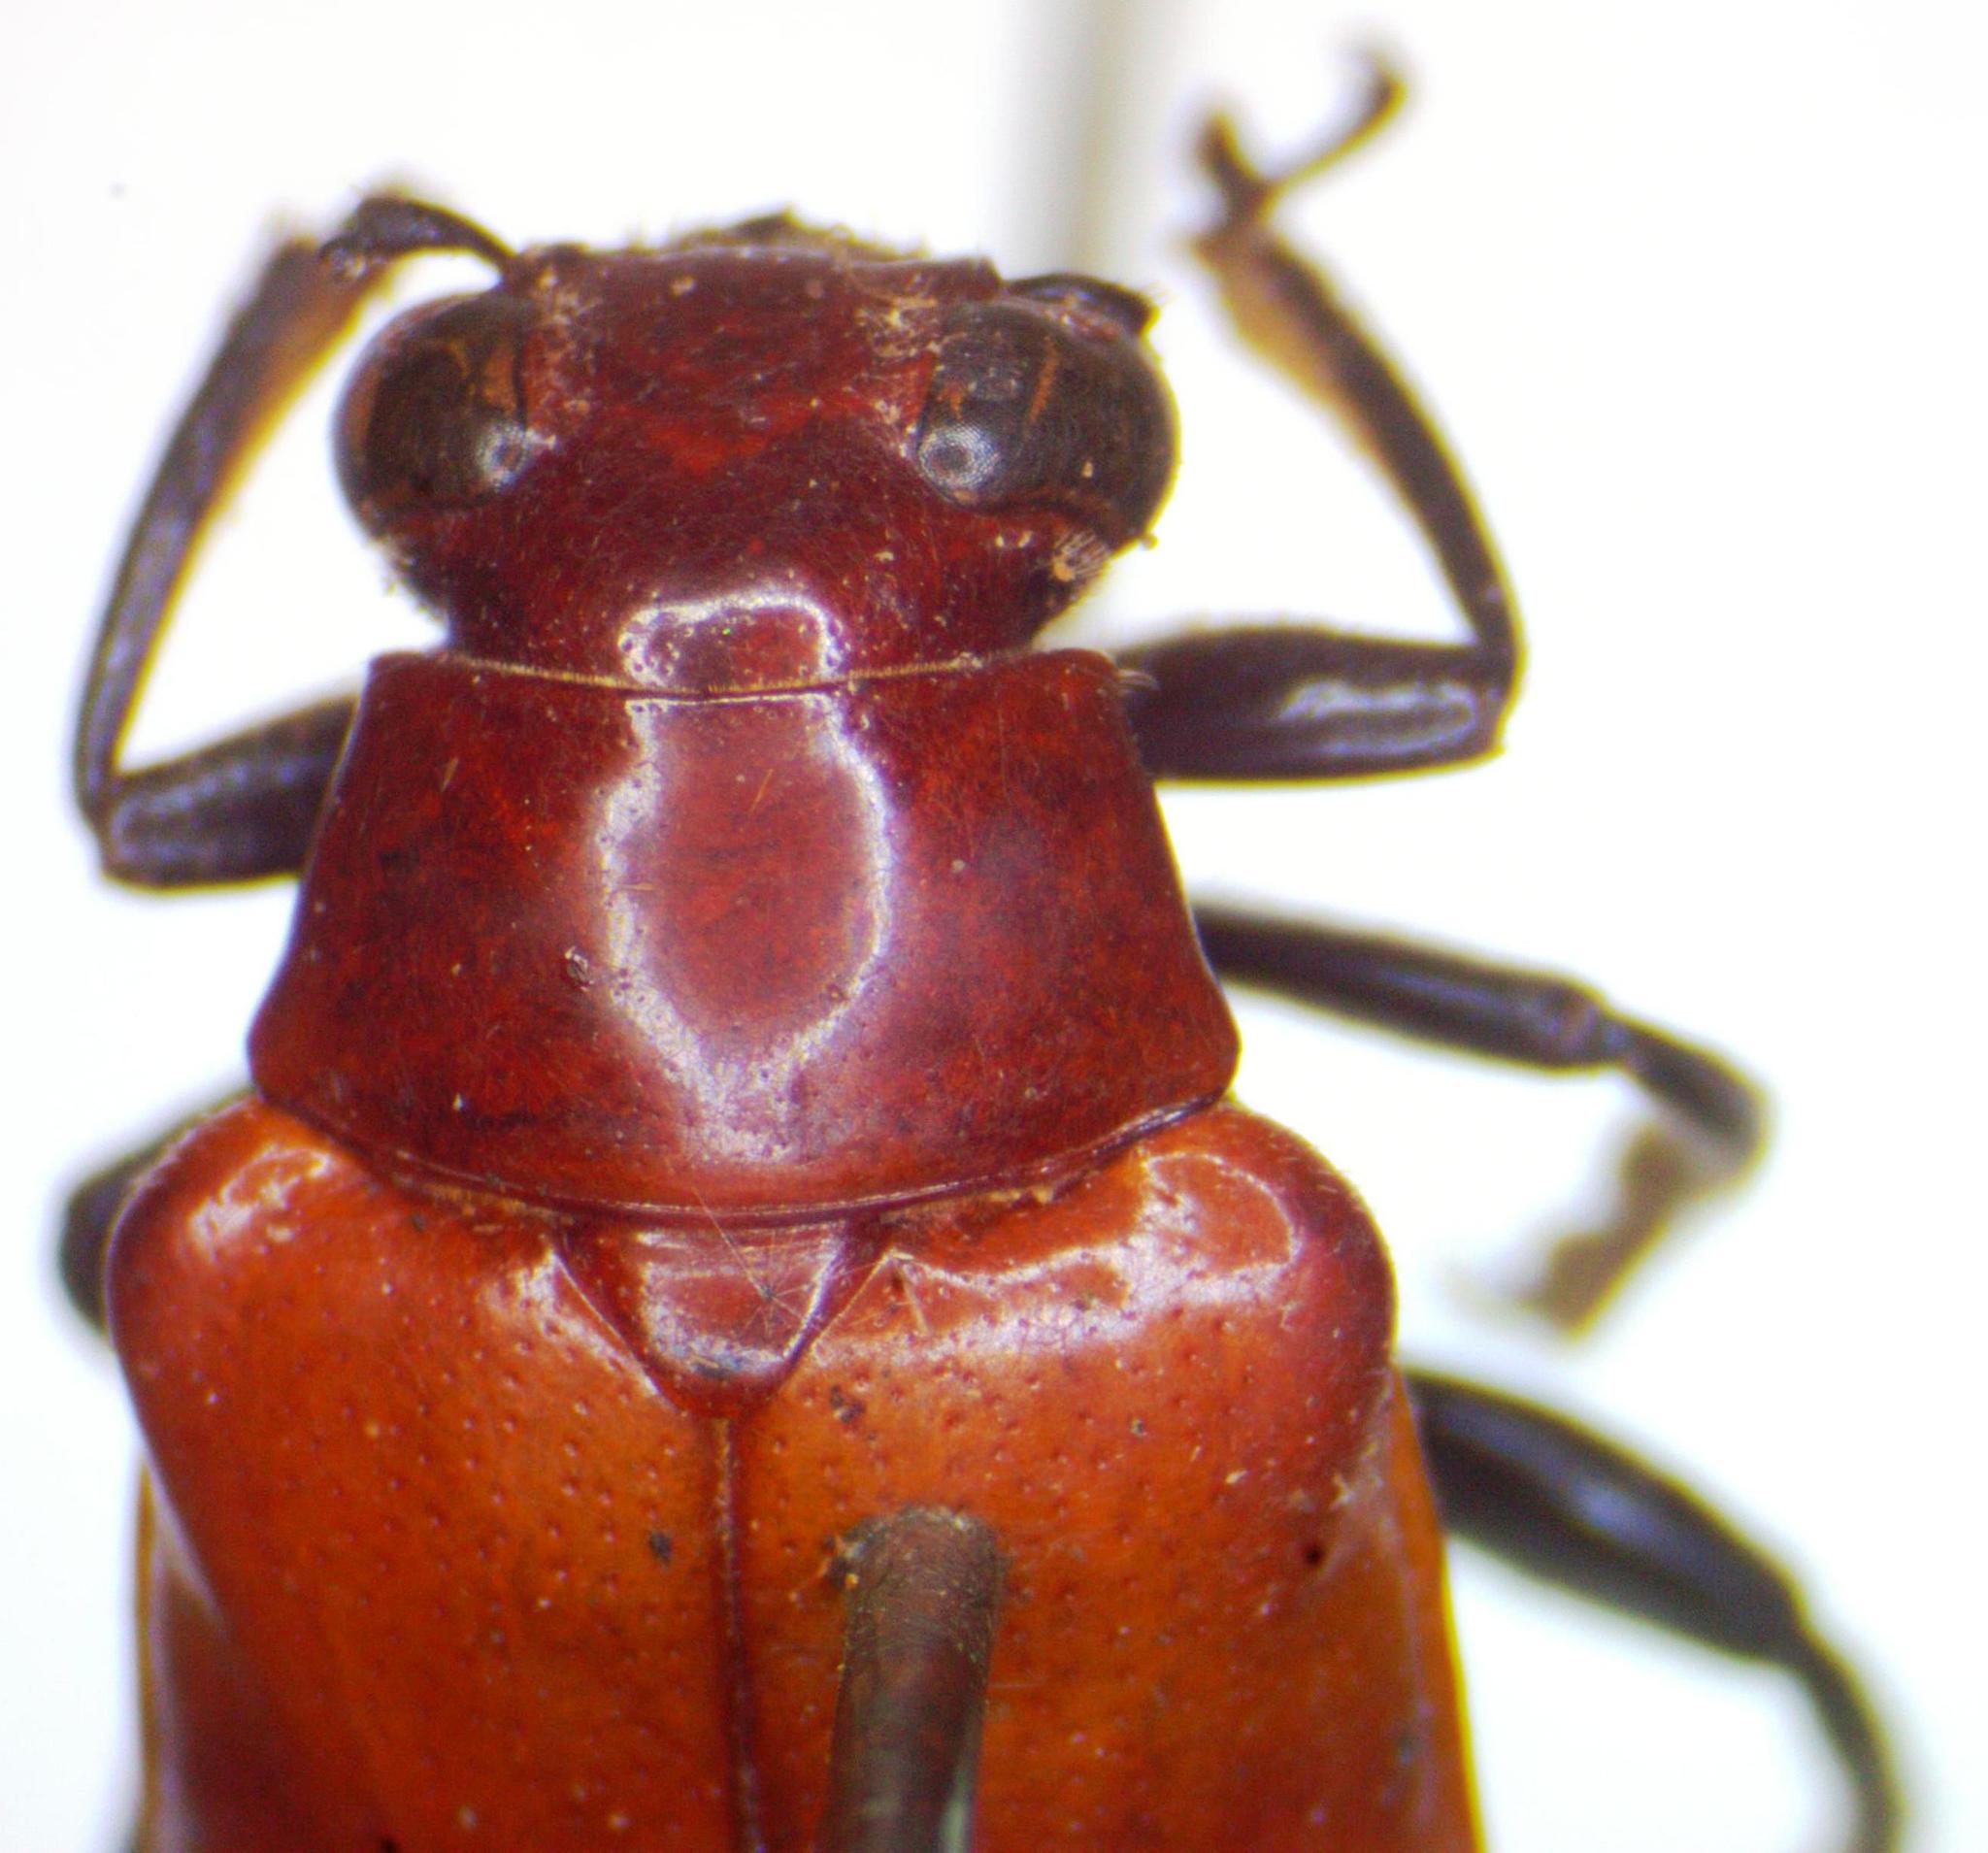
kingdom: Animalia
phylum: Arthropoda
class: Insecta
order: Coleoptera
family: Megalopodidae
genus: Mastostethus
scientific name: Mastostethus nigrocinctus
